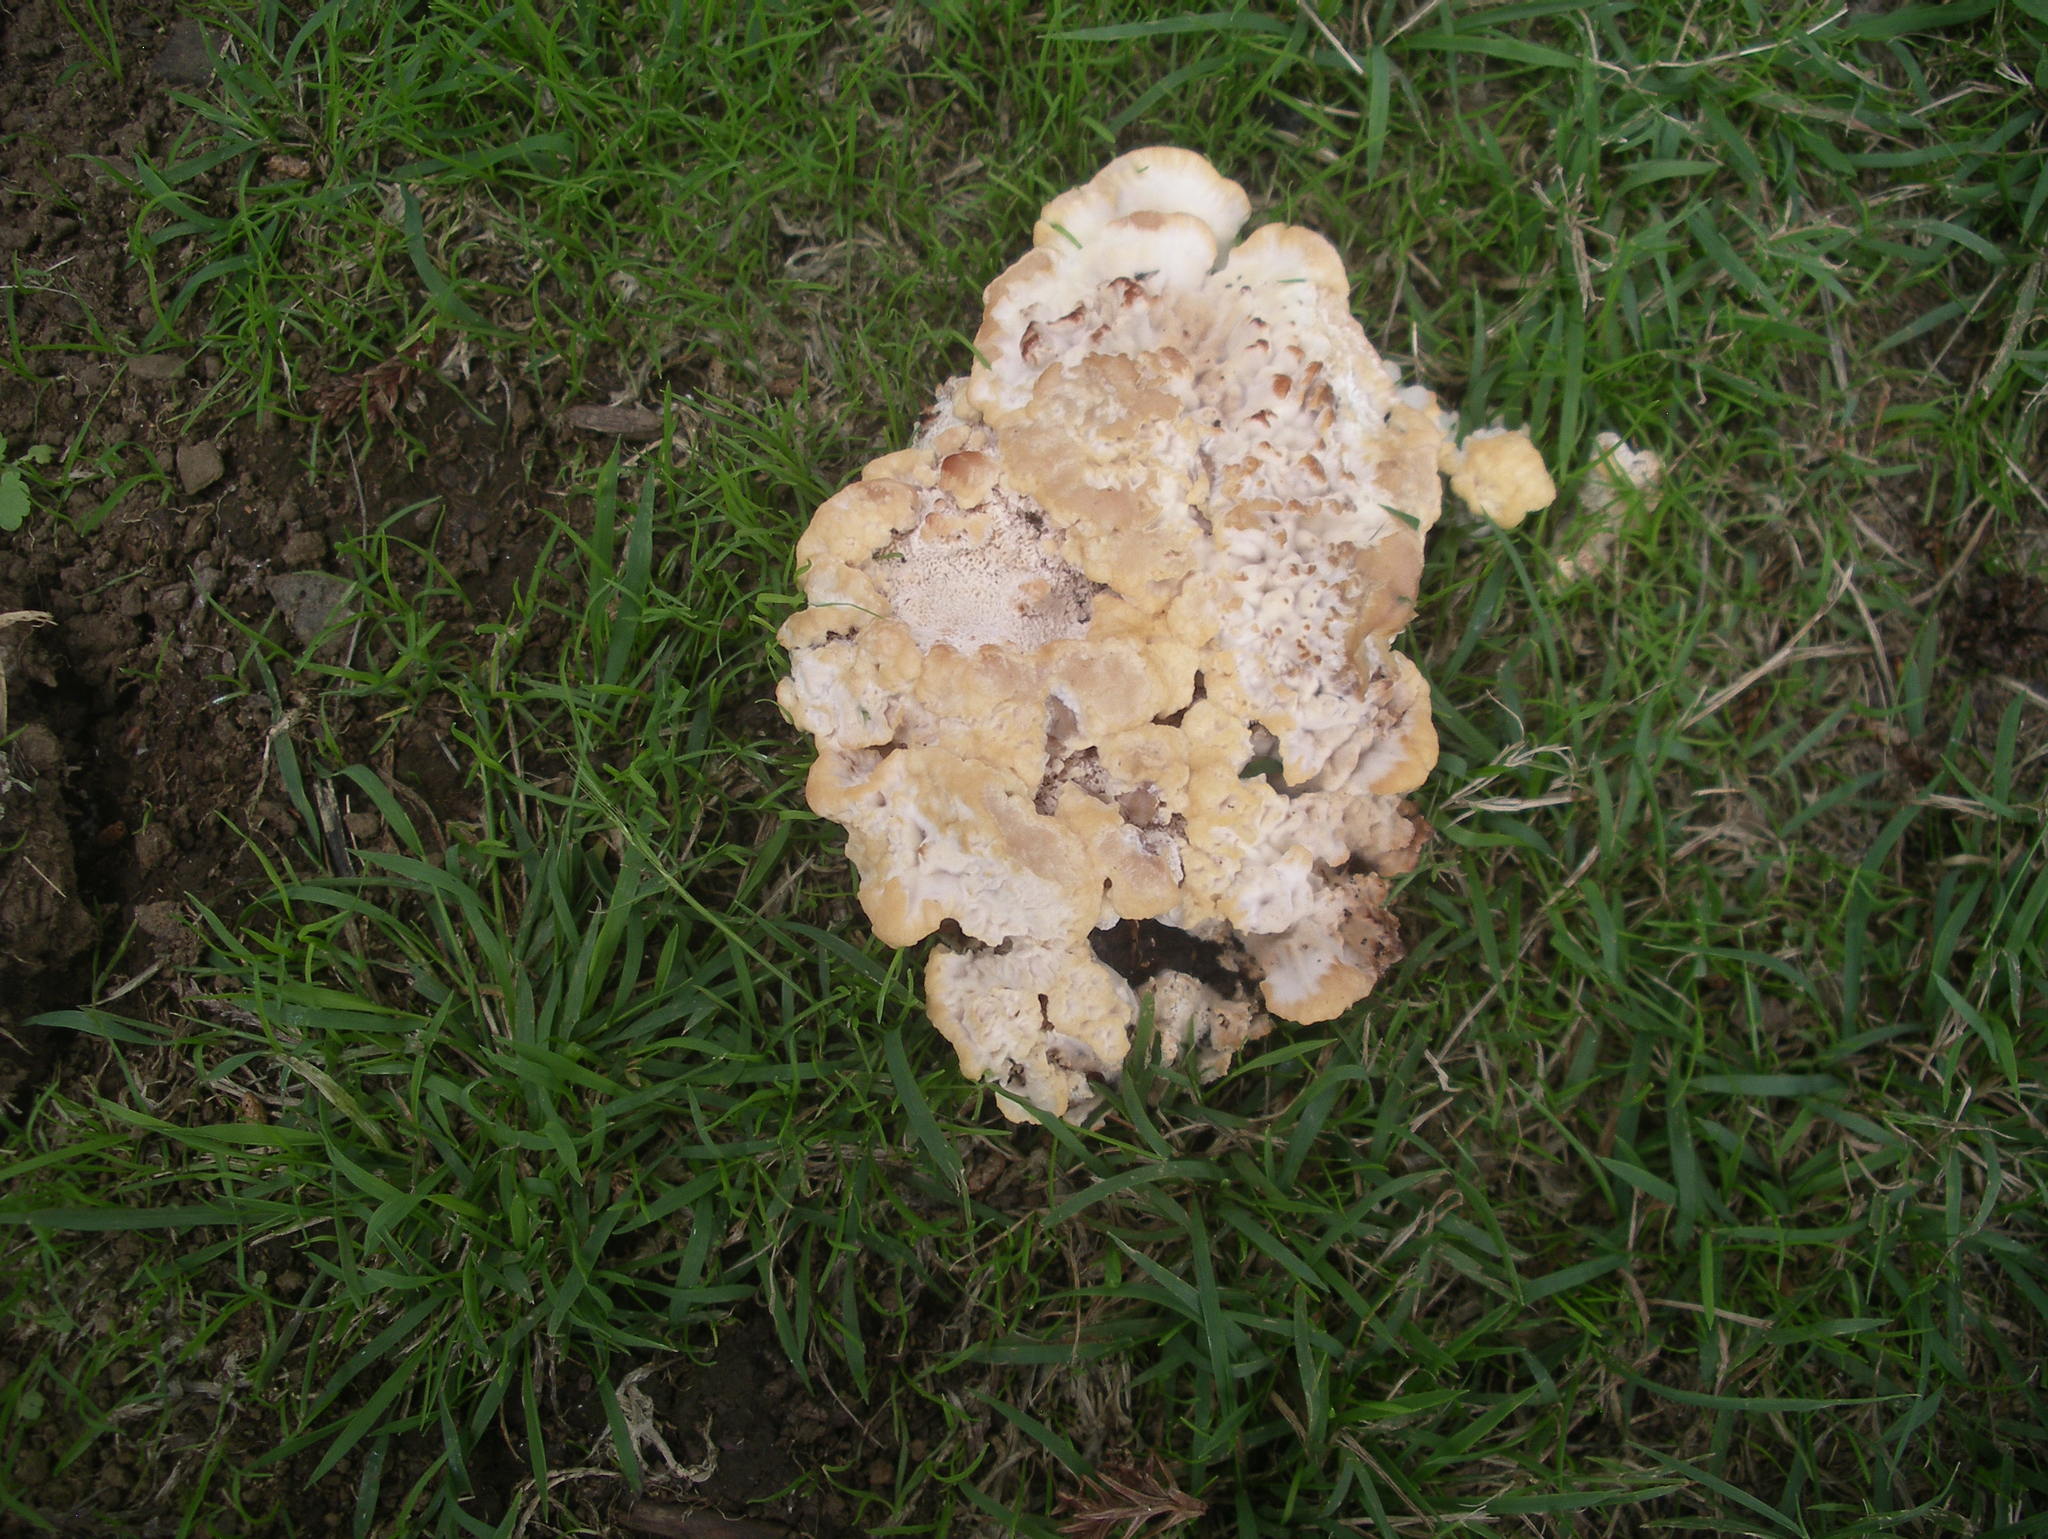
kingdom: Fungi
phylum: Basidiomycota
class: Agaricomycetes
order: Polyporales
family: Podoscyphaceae
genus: Abortiporus
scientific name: Abortiporus biennis
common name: Blushing rosette
